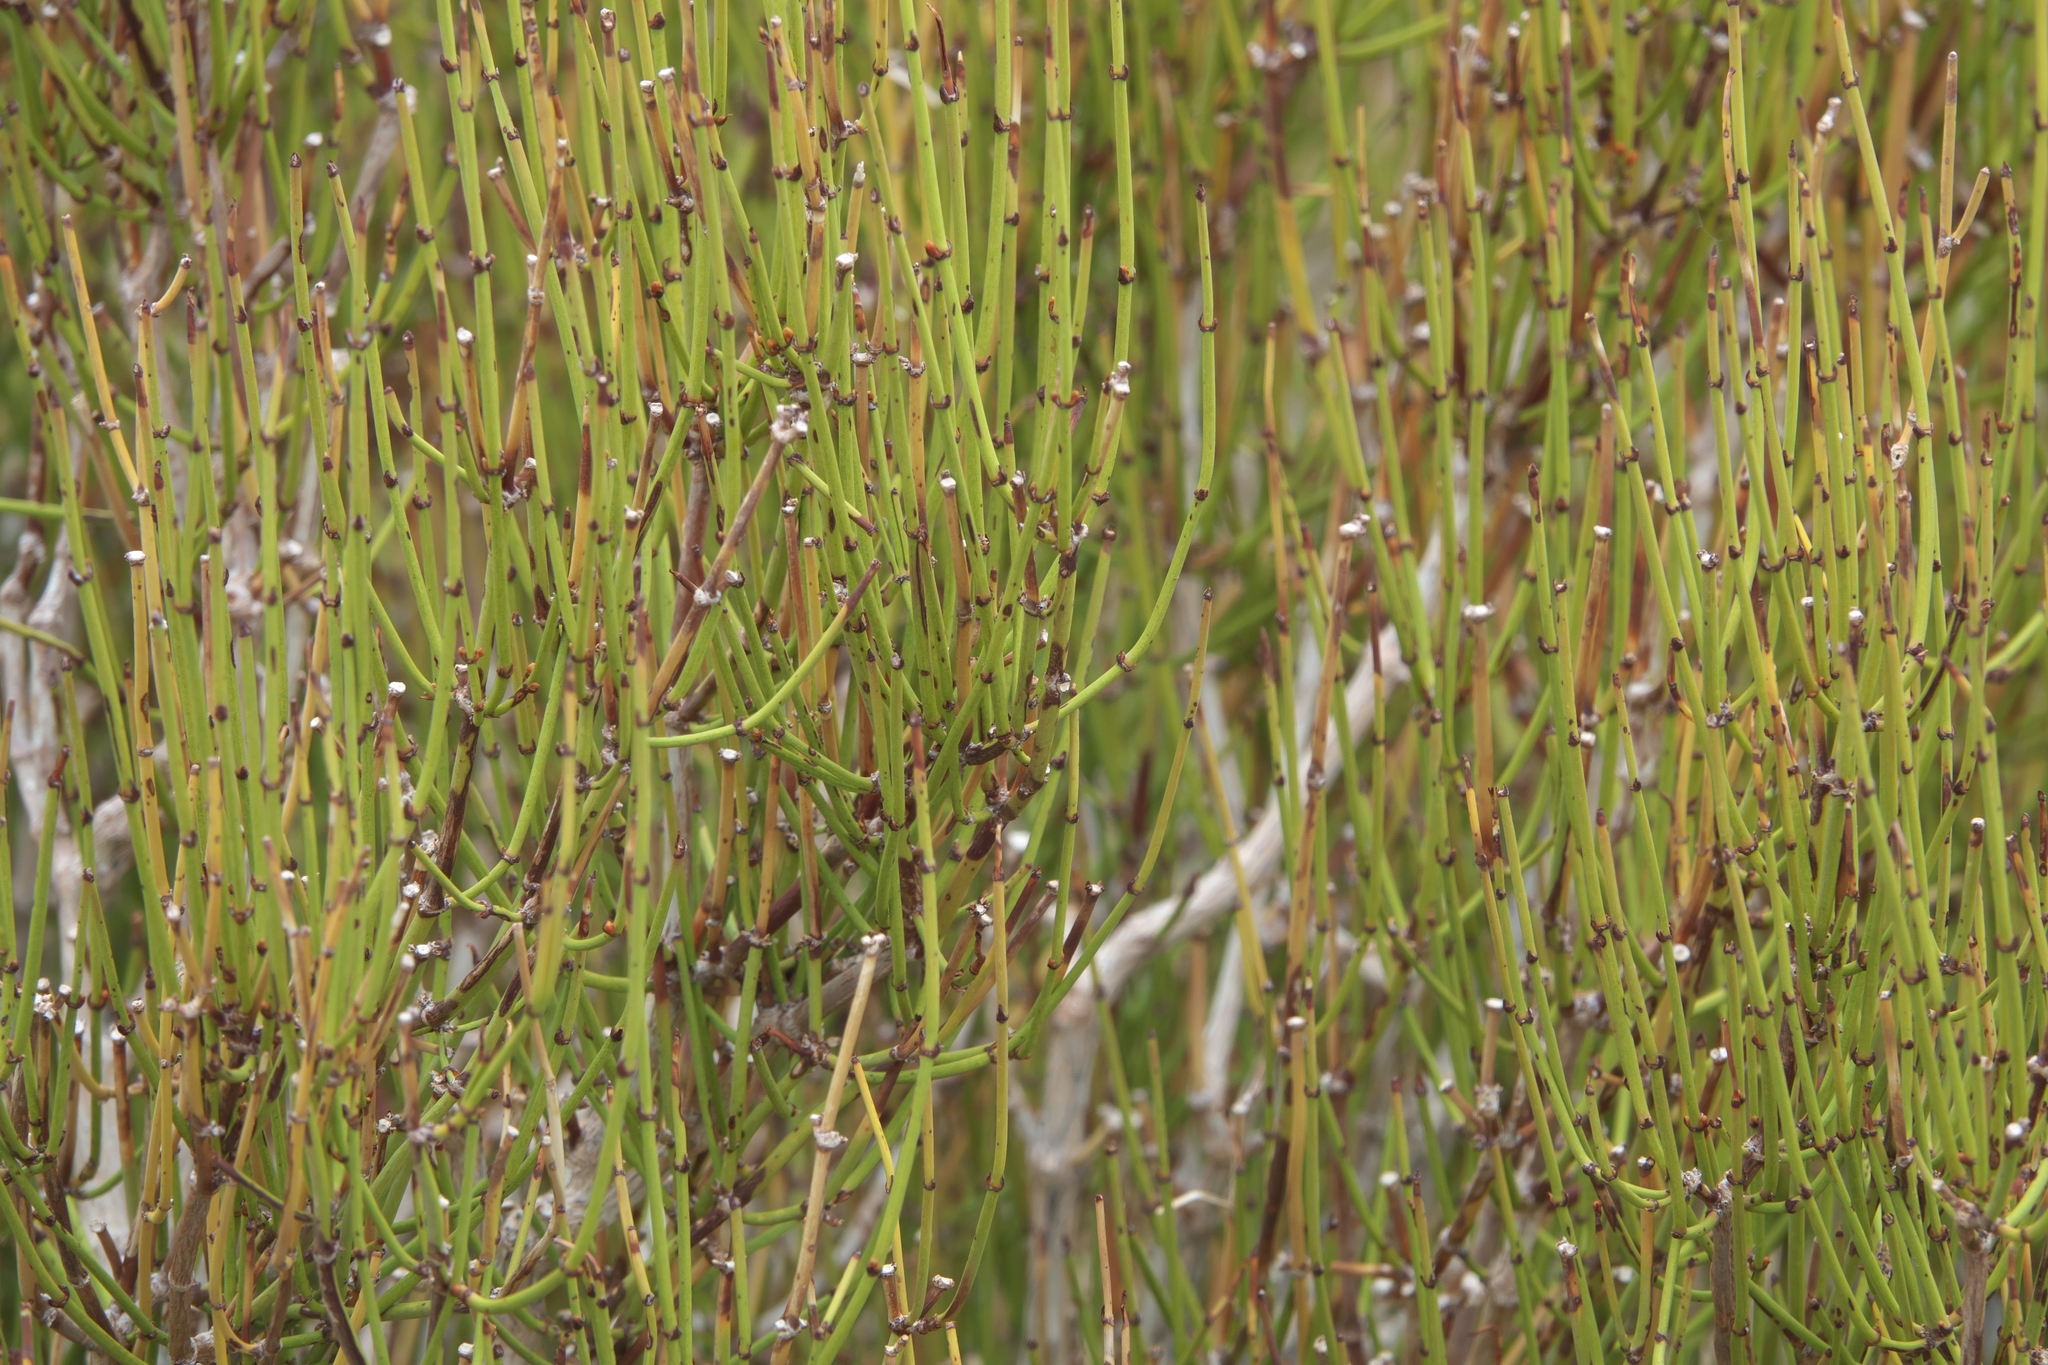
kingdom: Plantae
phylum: Tracheophyta
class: Gnetopsida
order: Ephedrales
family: Ephedraceae
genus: Ephedra
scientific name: Ephedra viridis
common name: Green ephedra
